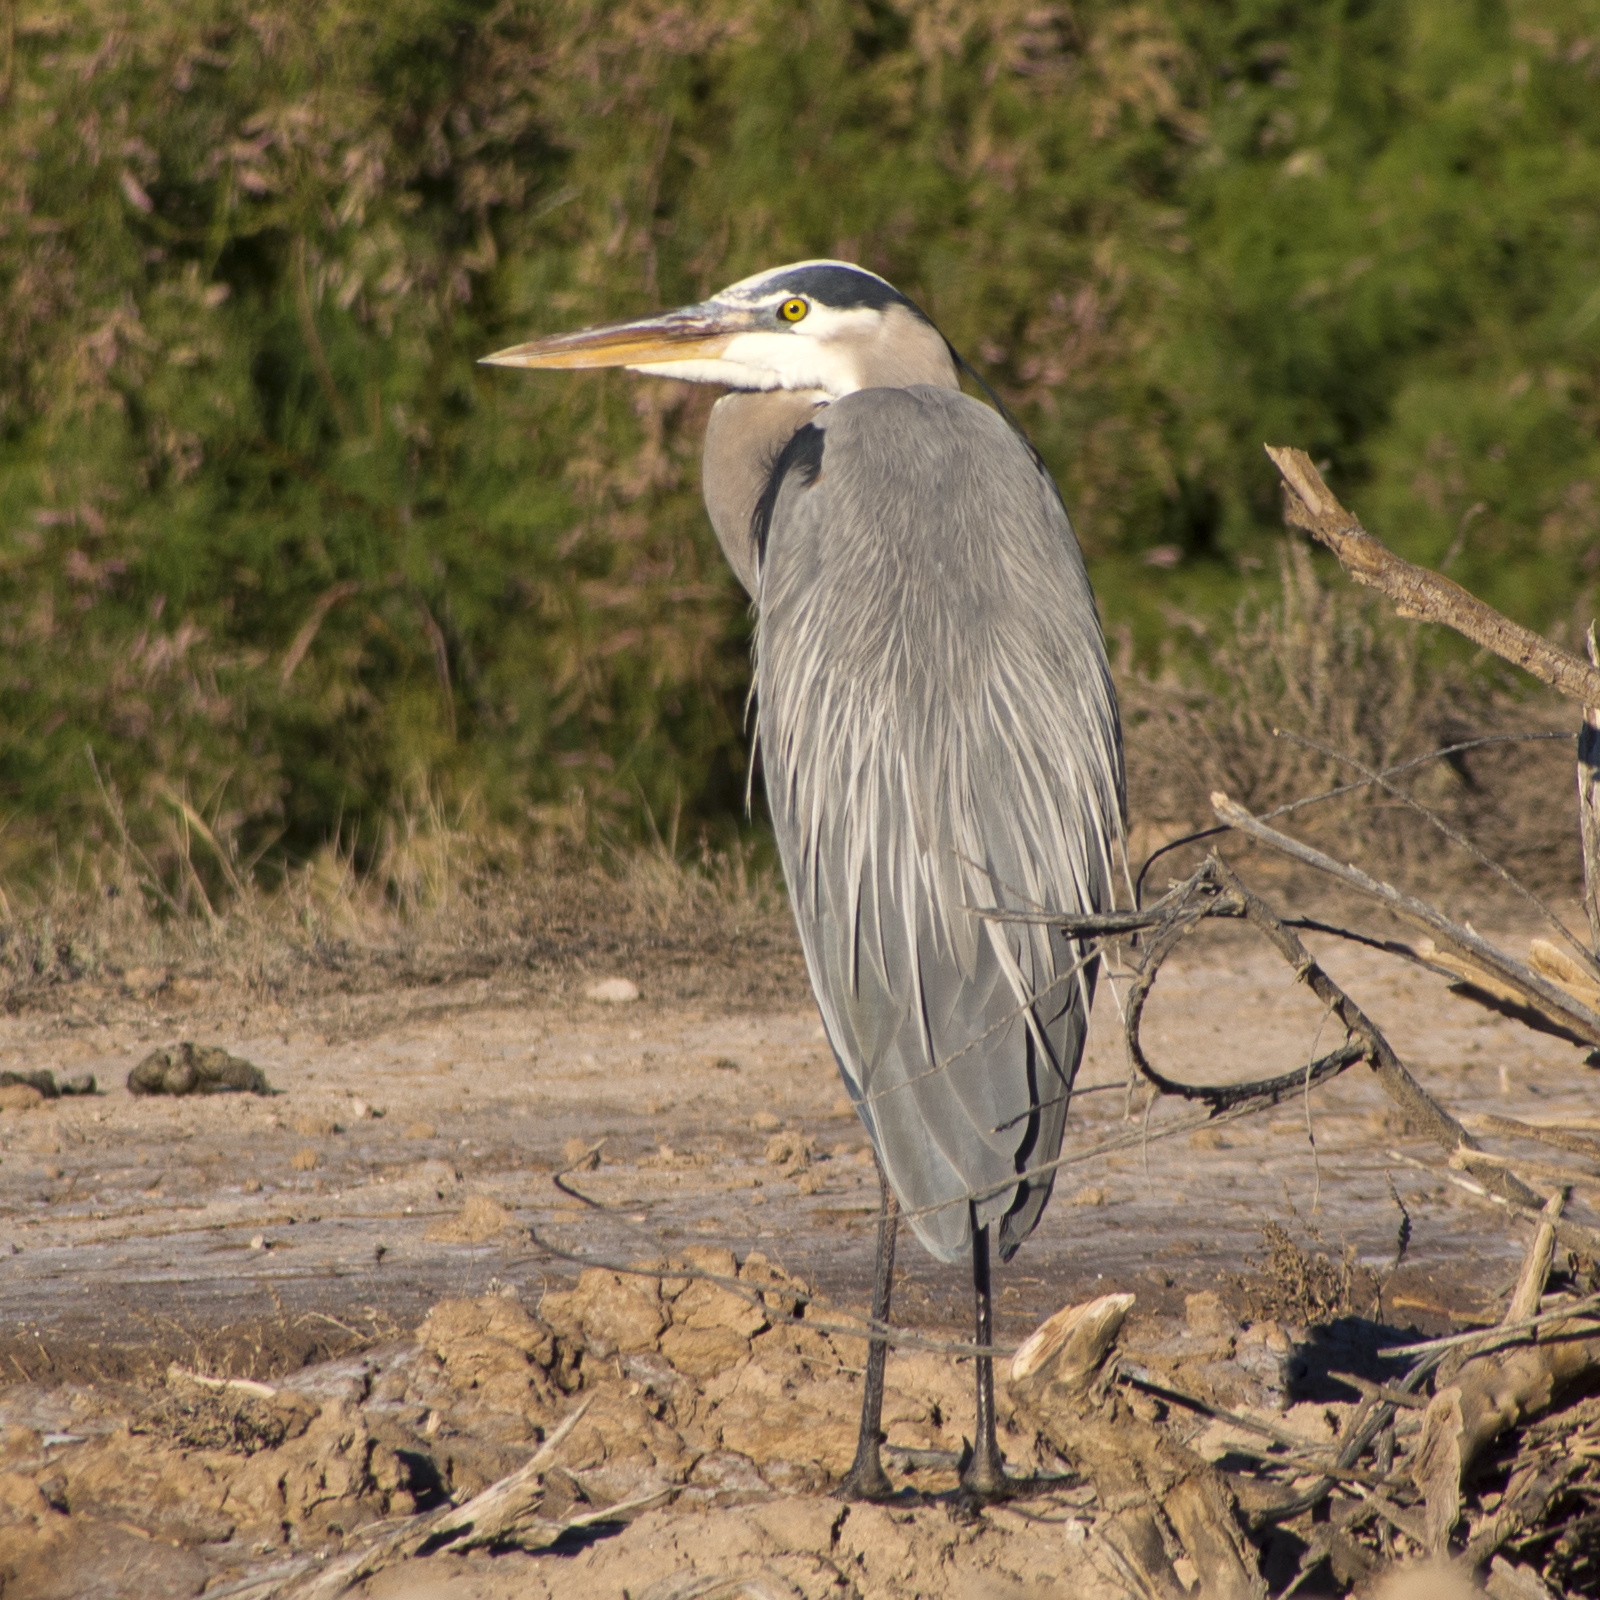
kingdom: Animalia
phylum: Chordata
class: Aves
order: Pelecaniformes
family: Ardeidae
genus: Ardea
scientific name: Ardea herodias
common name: Great blue heron
